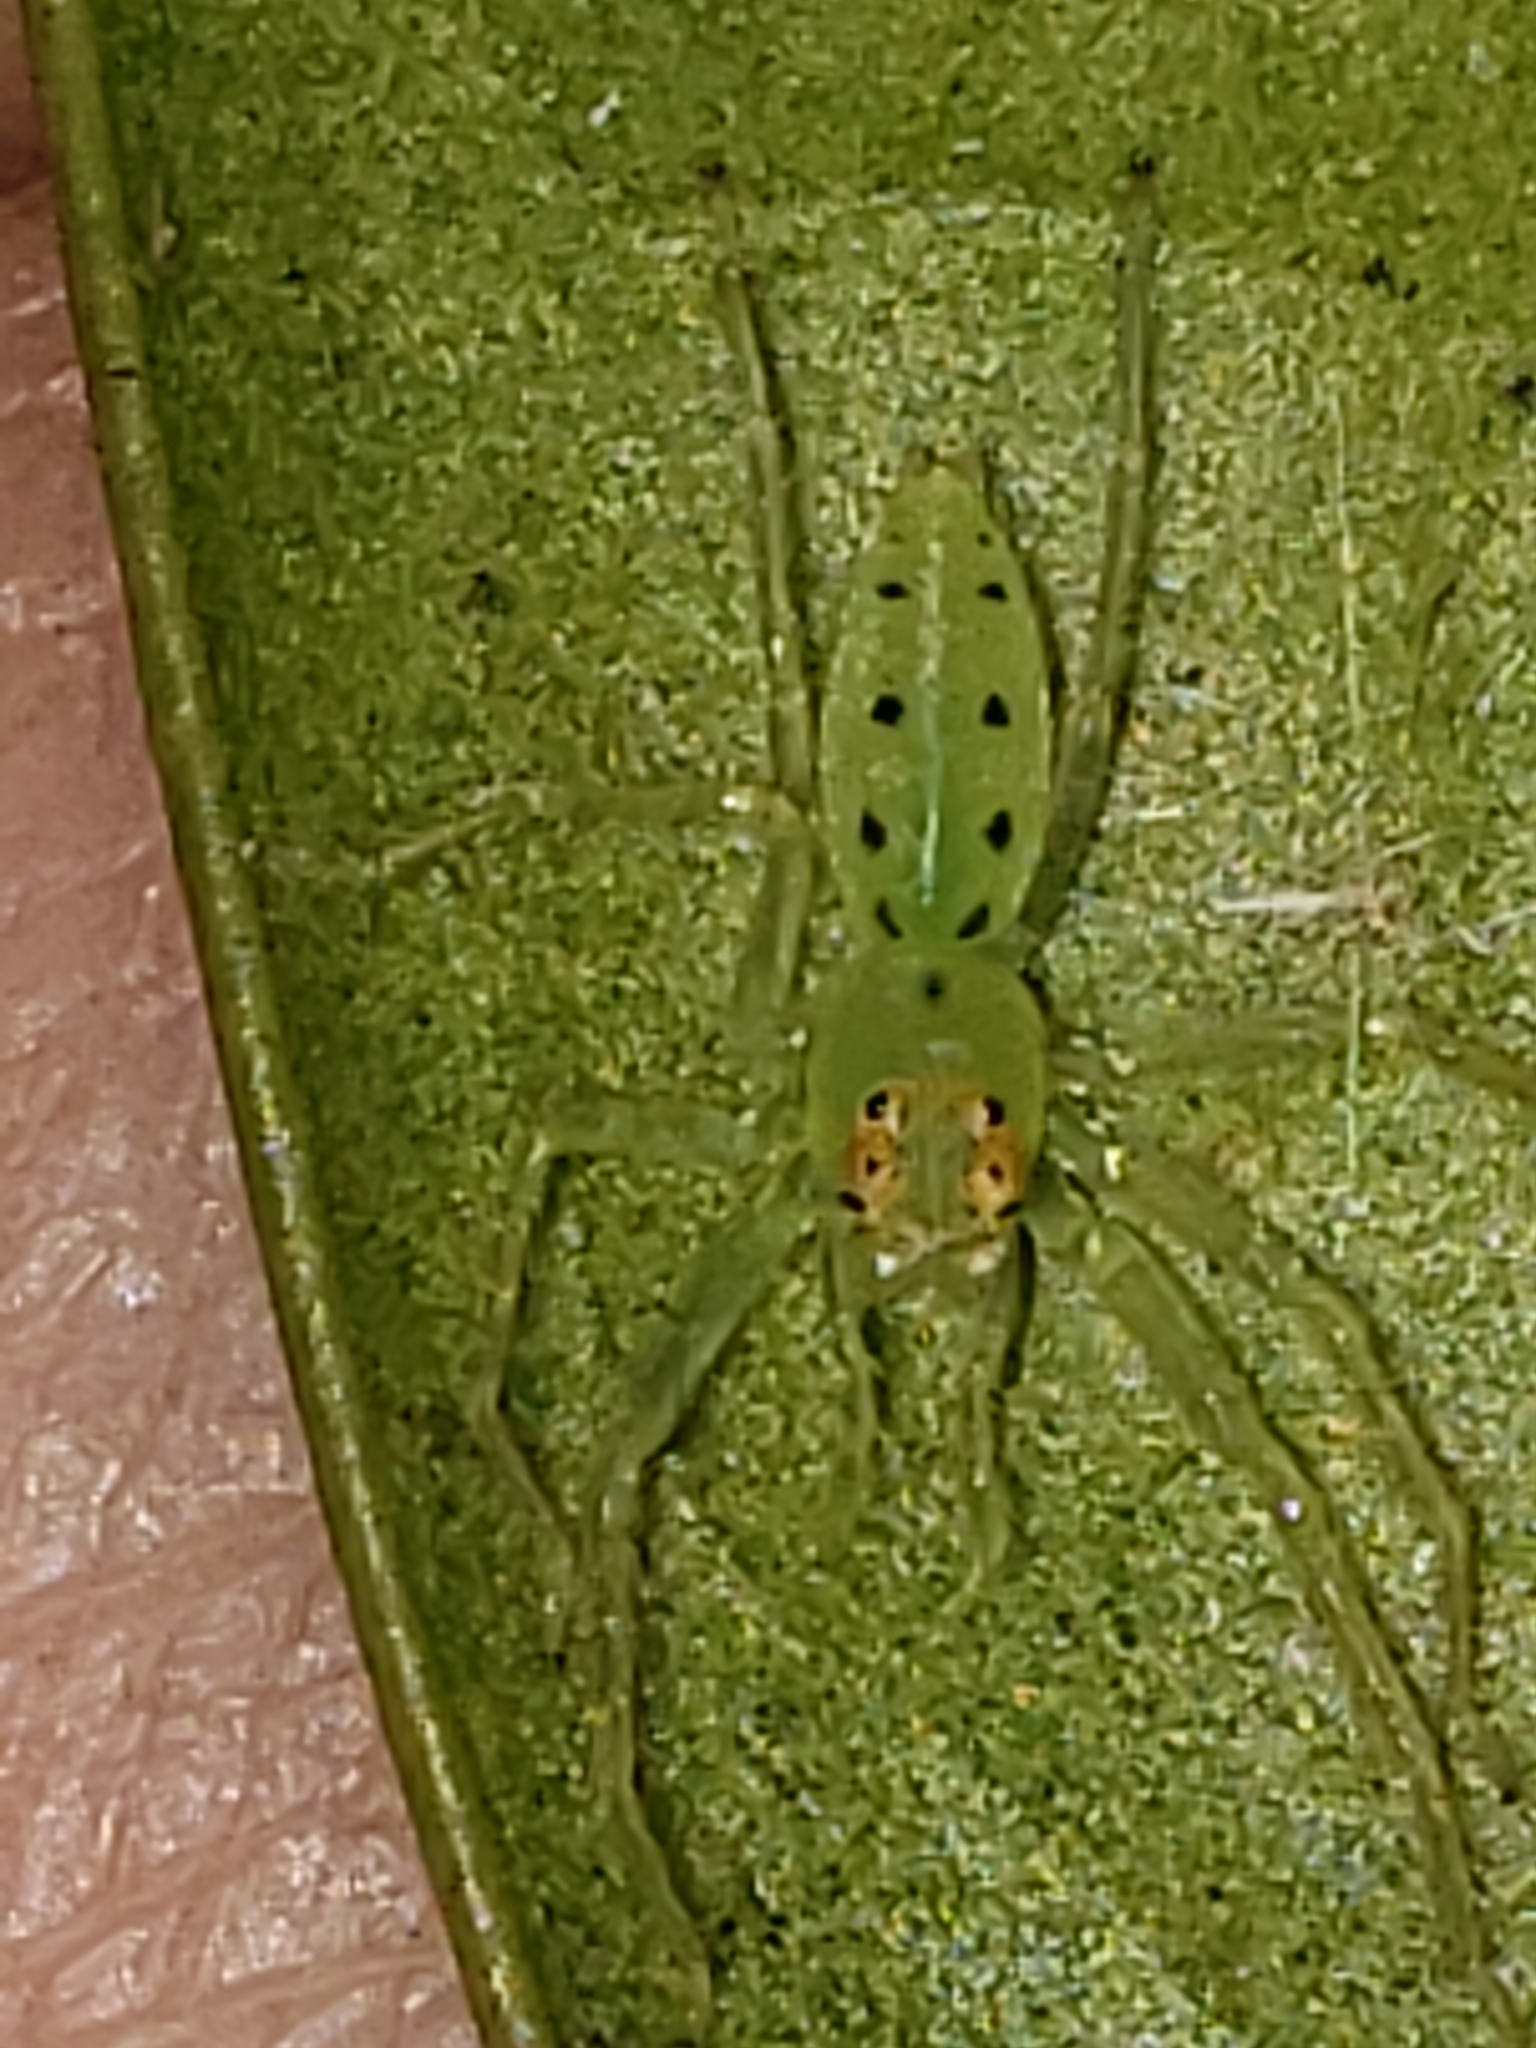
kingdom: Animalia
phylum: Arthropoda
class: Arachnida
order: Araneae
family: Salticidae
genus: Lyssomanes
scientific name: Lyssomanes viridis
